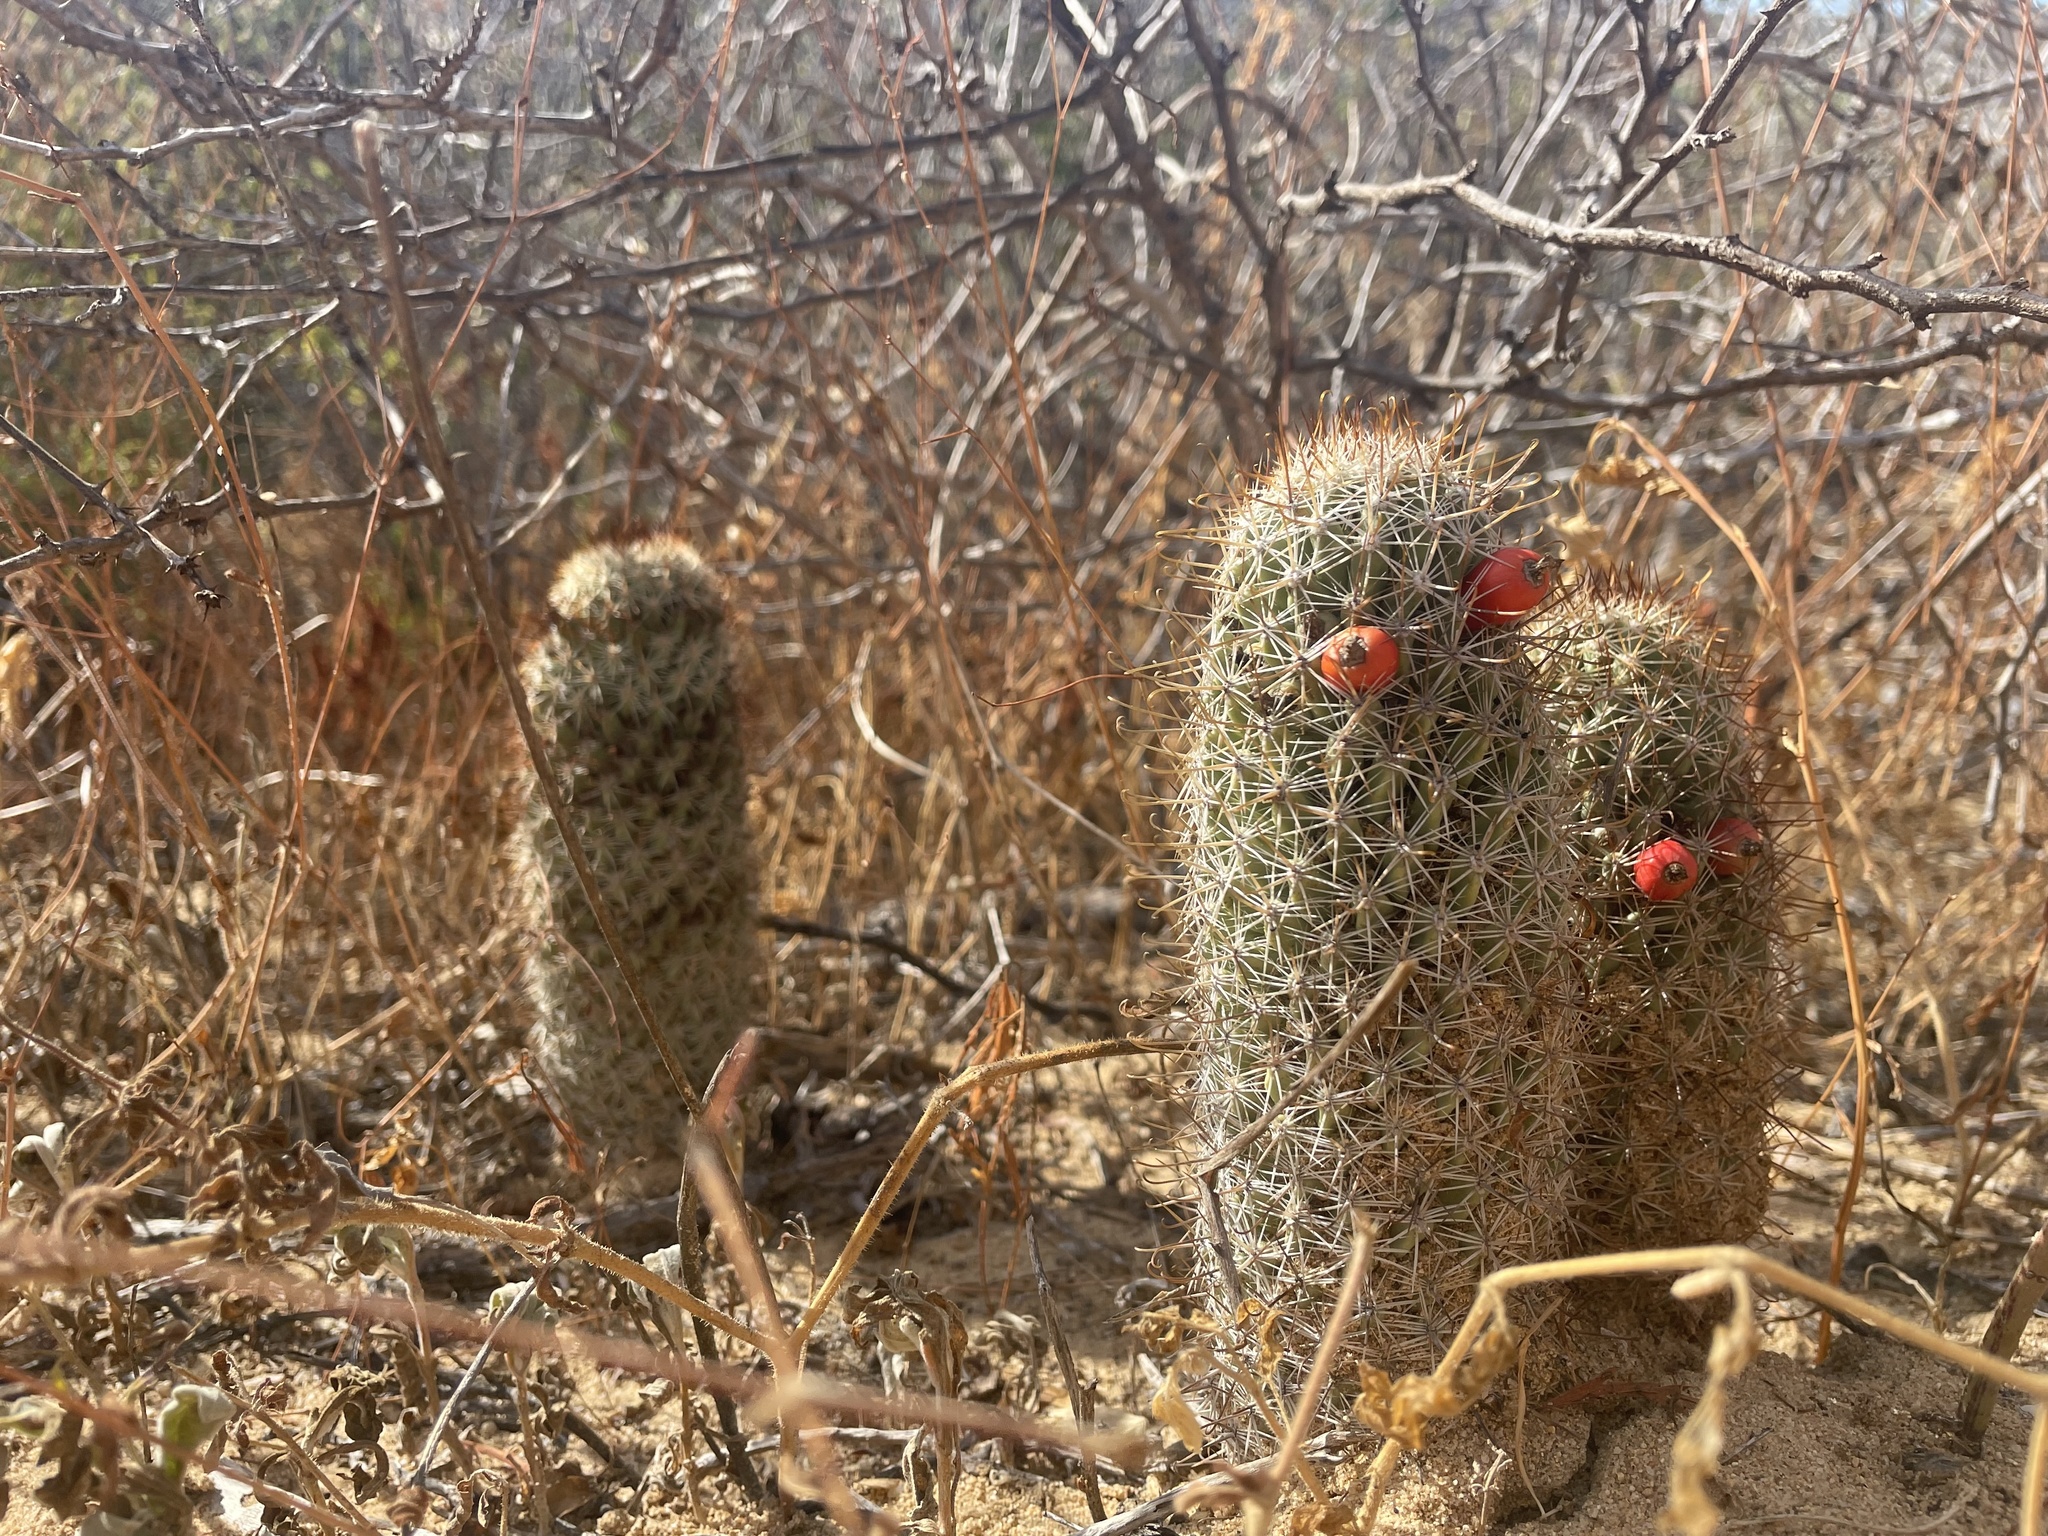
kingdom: Plantae
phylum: Tracheophyta
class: Magnoliopsida
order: Caryophyllales
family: Cactaceae
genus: Cochemiea
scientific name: Cochemiea armillata
